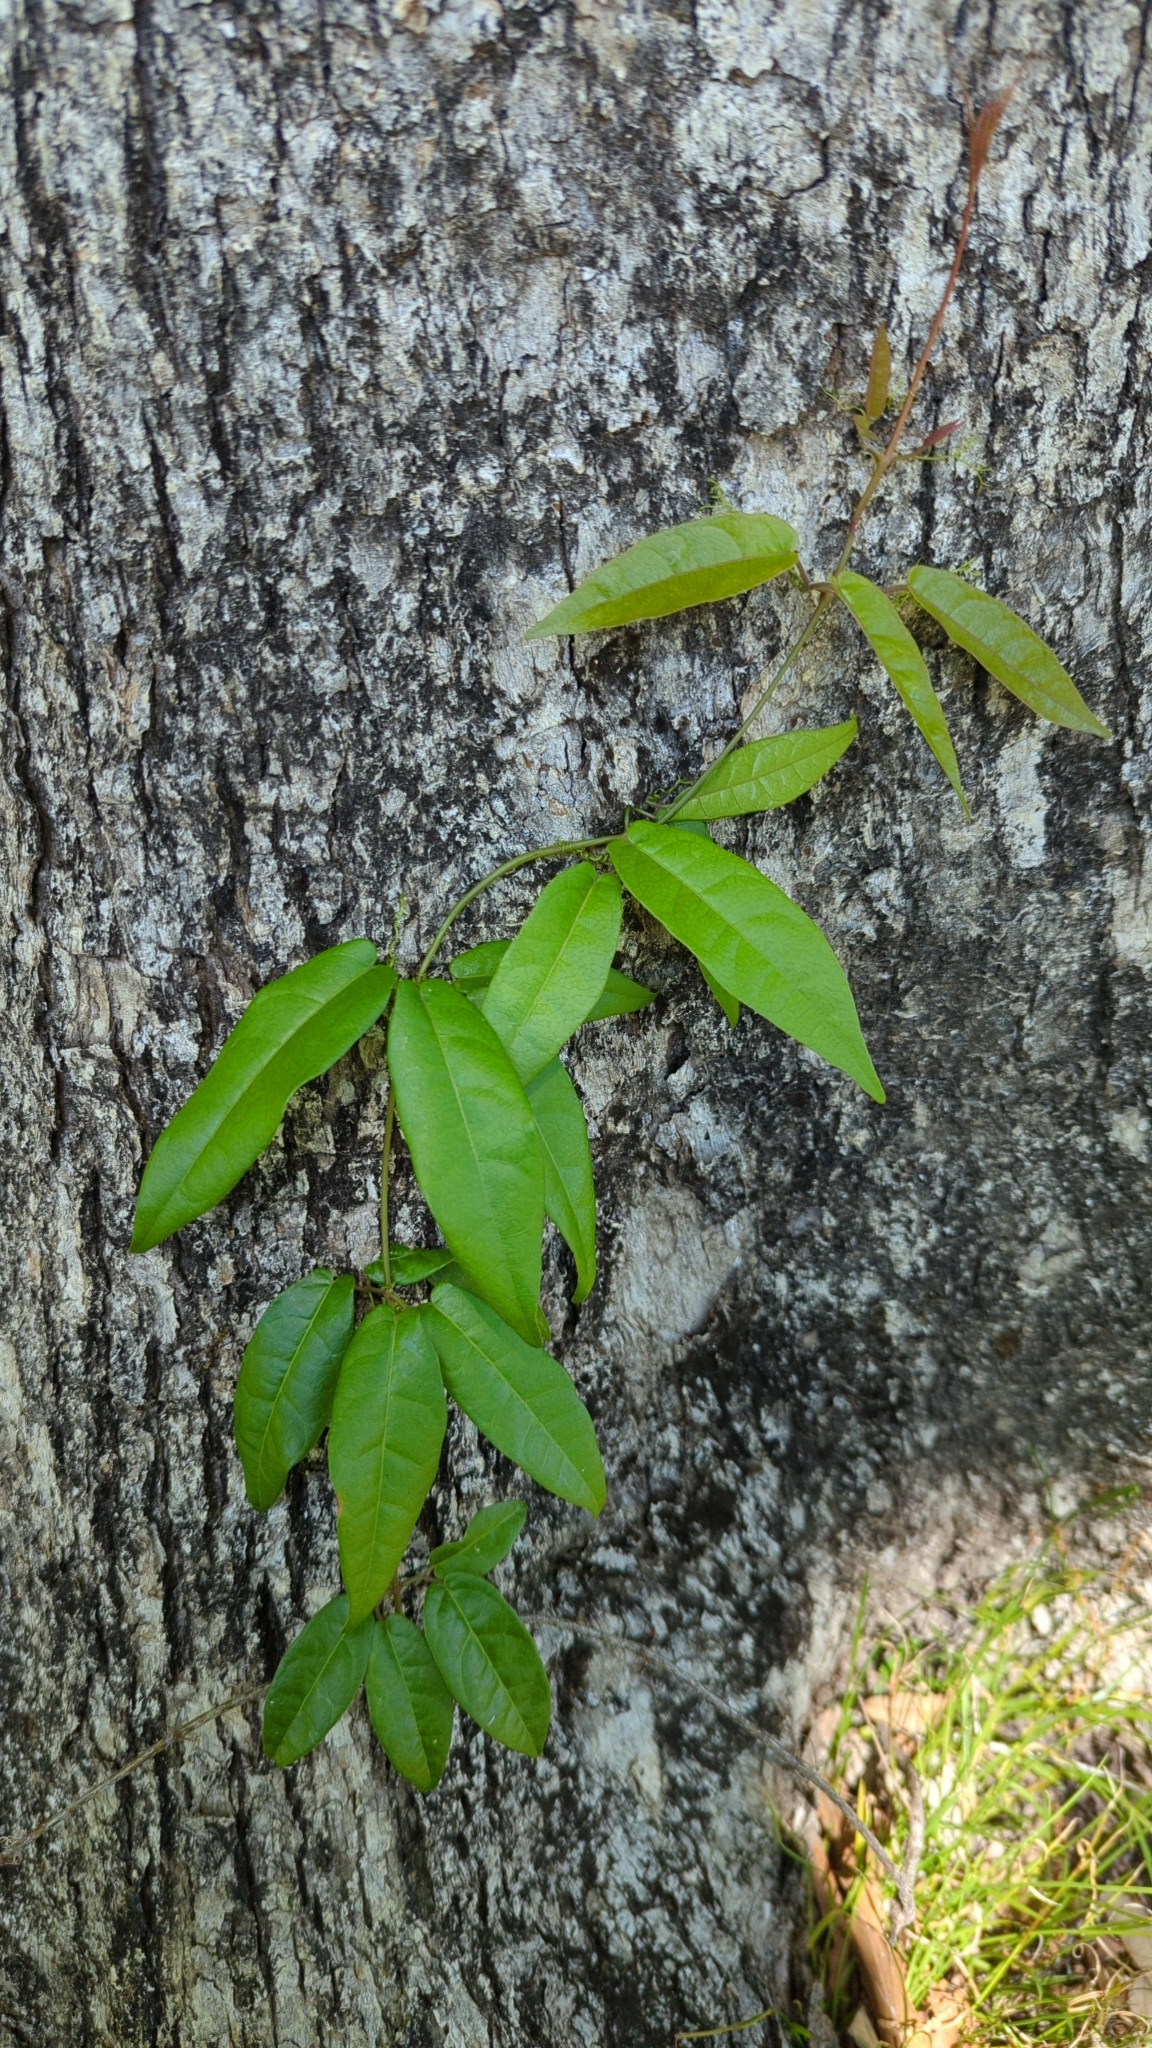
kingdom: Plantae
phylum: Tracheophyta
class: Magnoliopsida
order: Lamiales
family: Bignoniaceae
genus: Bignonia
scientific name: Bignonia capreolata
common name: Crossvine
